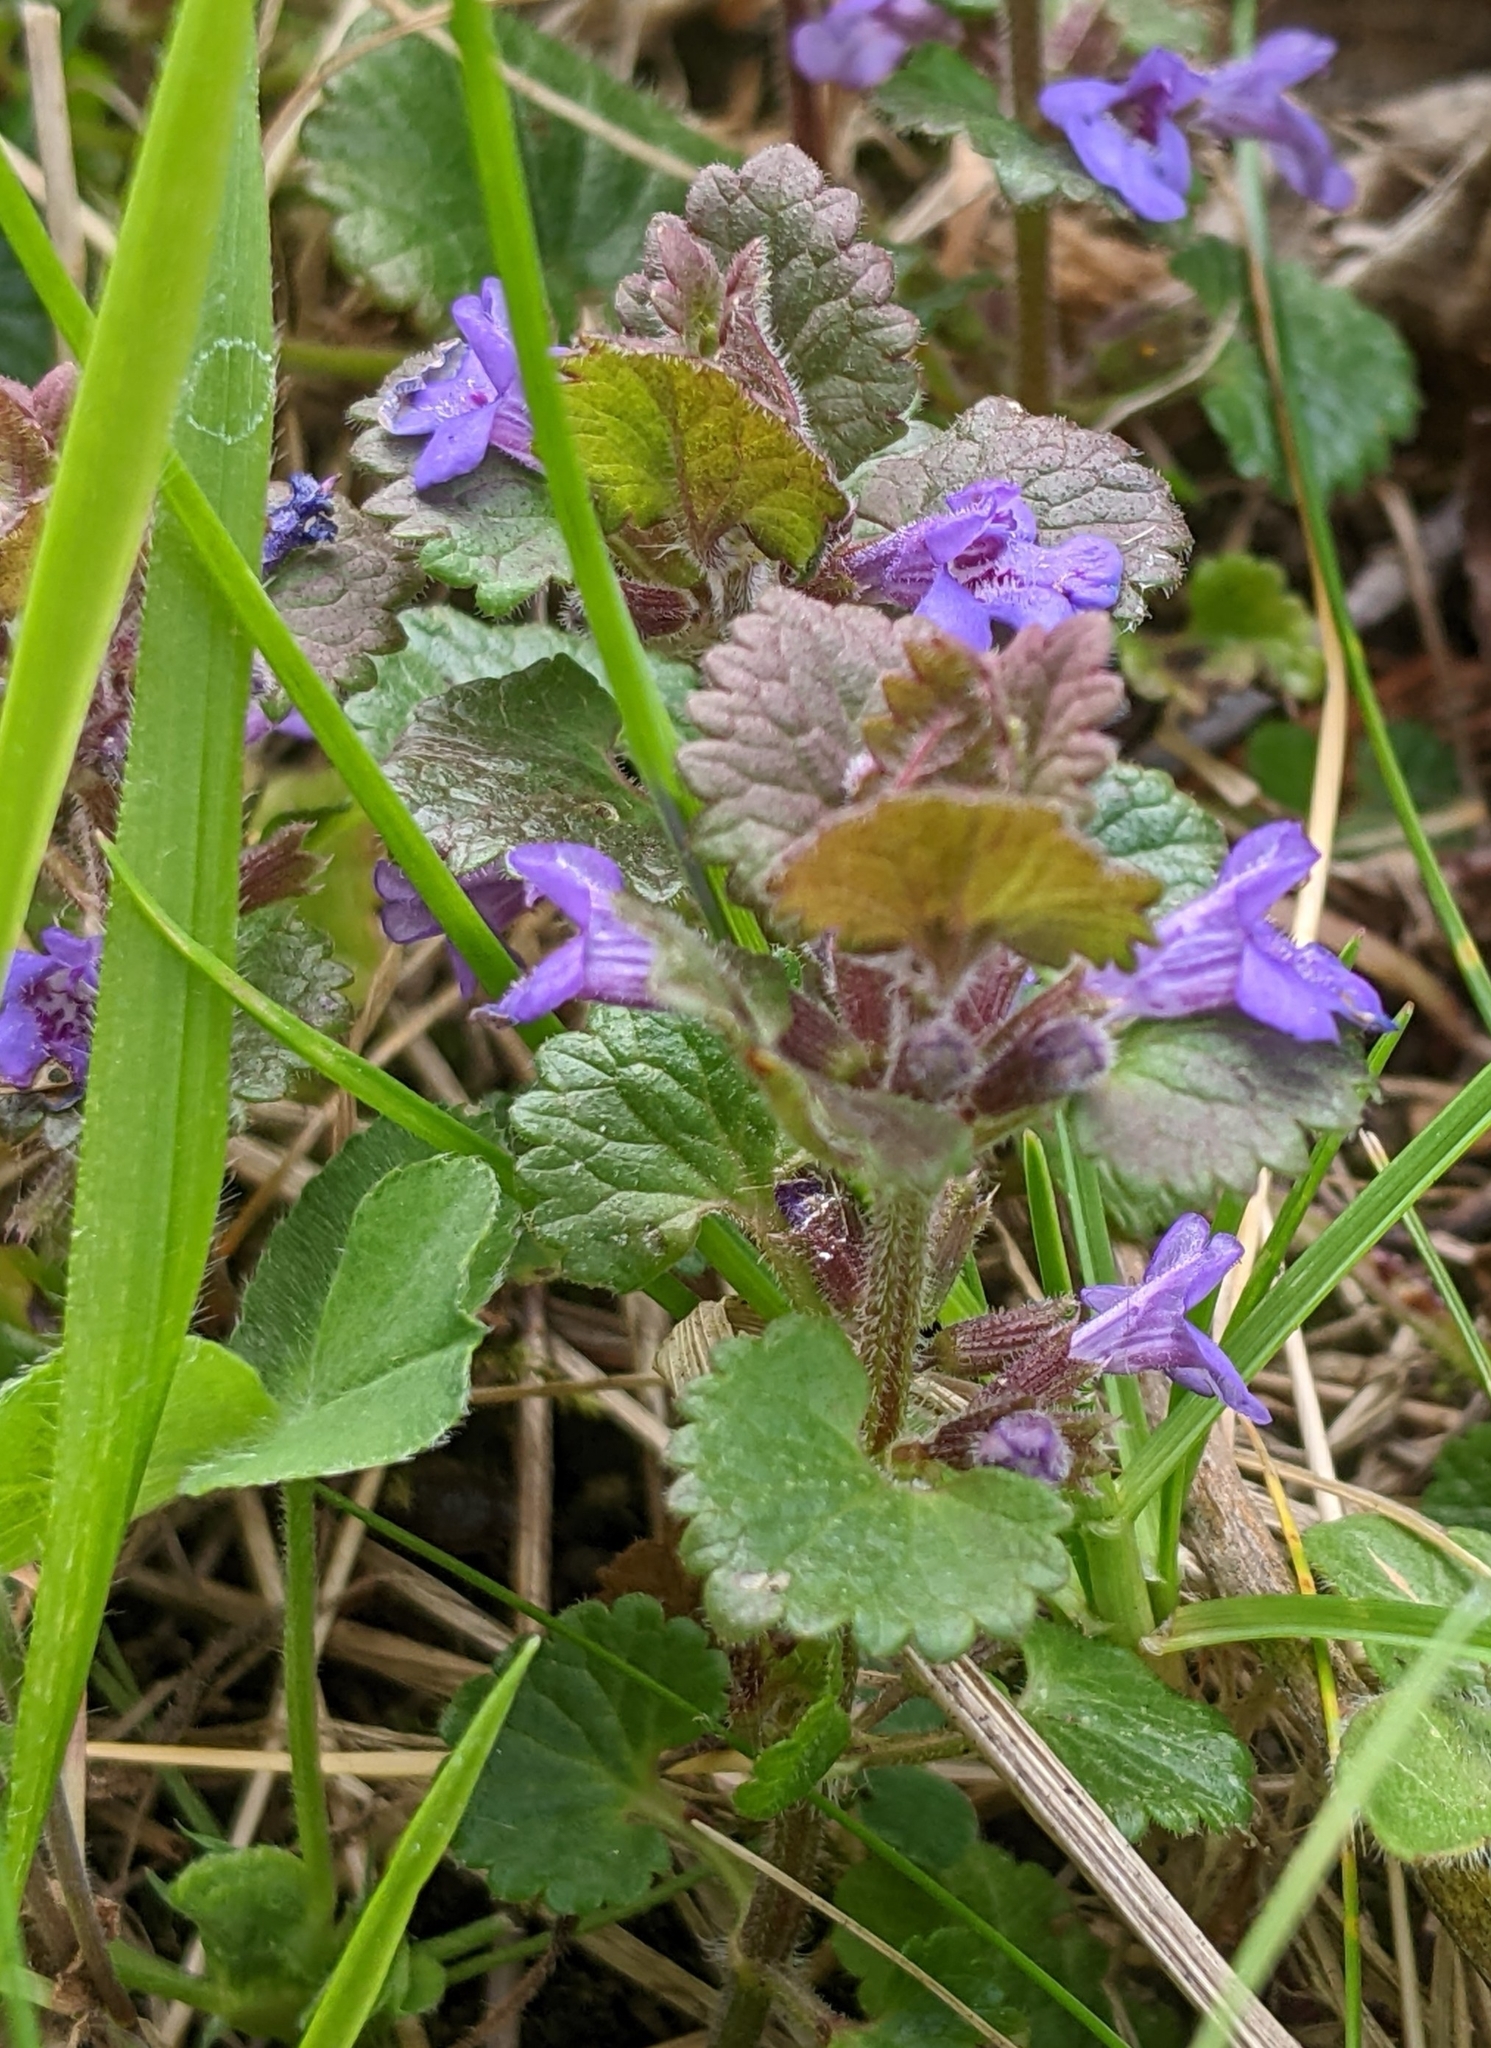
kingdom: Plantae
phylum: Tracheophyta
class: Magnoliopsida
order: Lamiales
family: Lamiaceae
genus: Glechoma
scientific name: Glechoma hederacea
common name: Ground ivy
